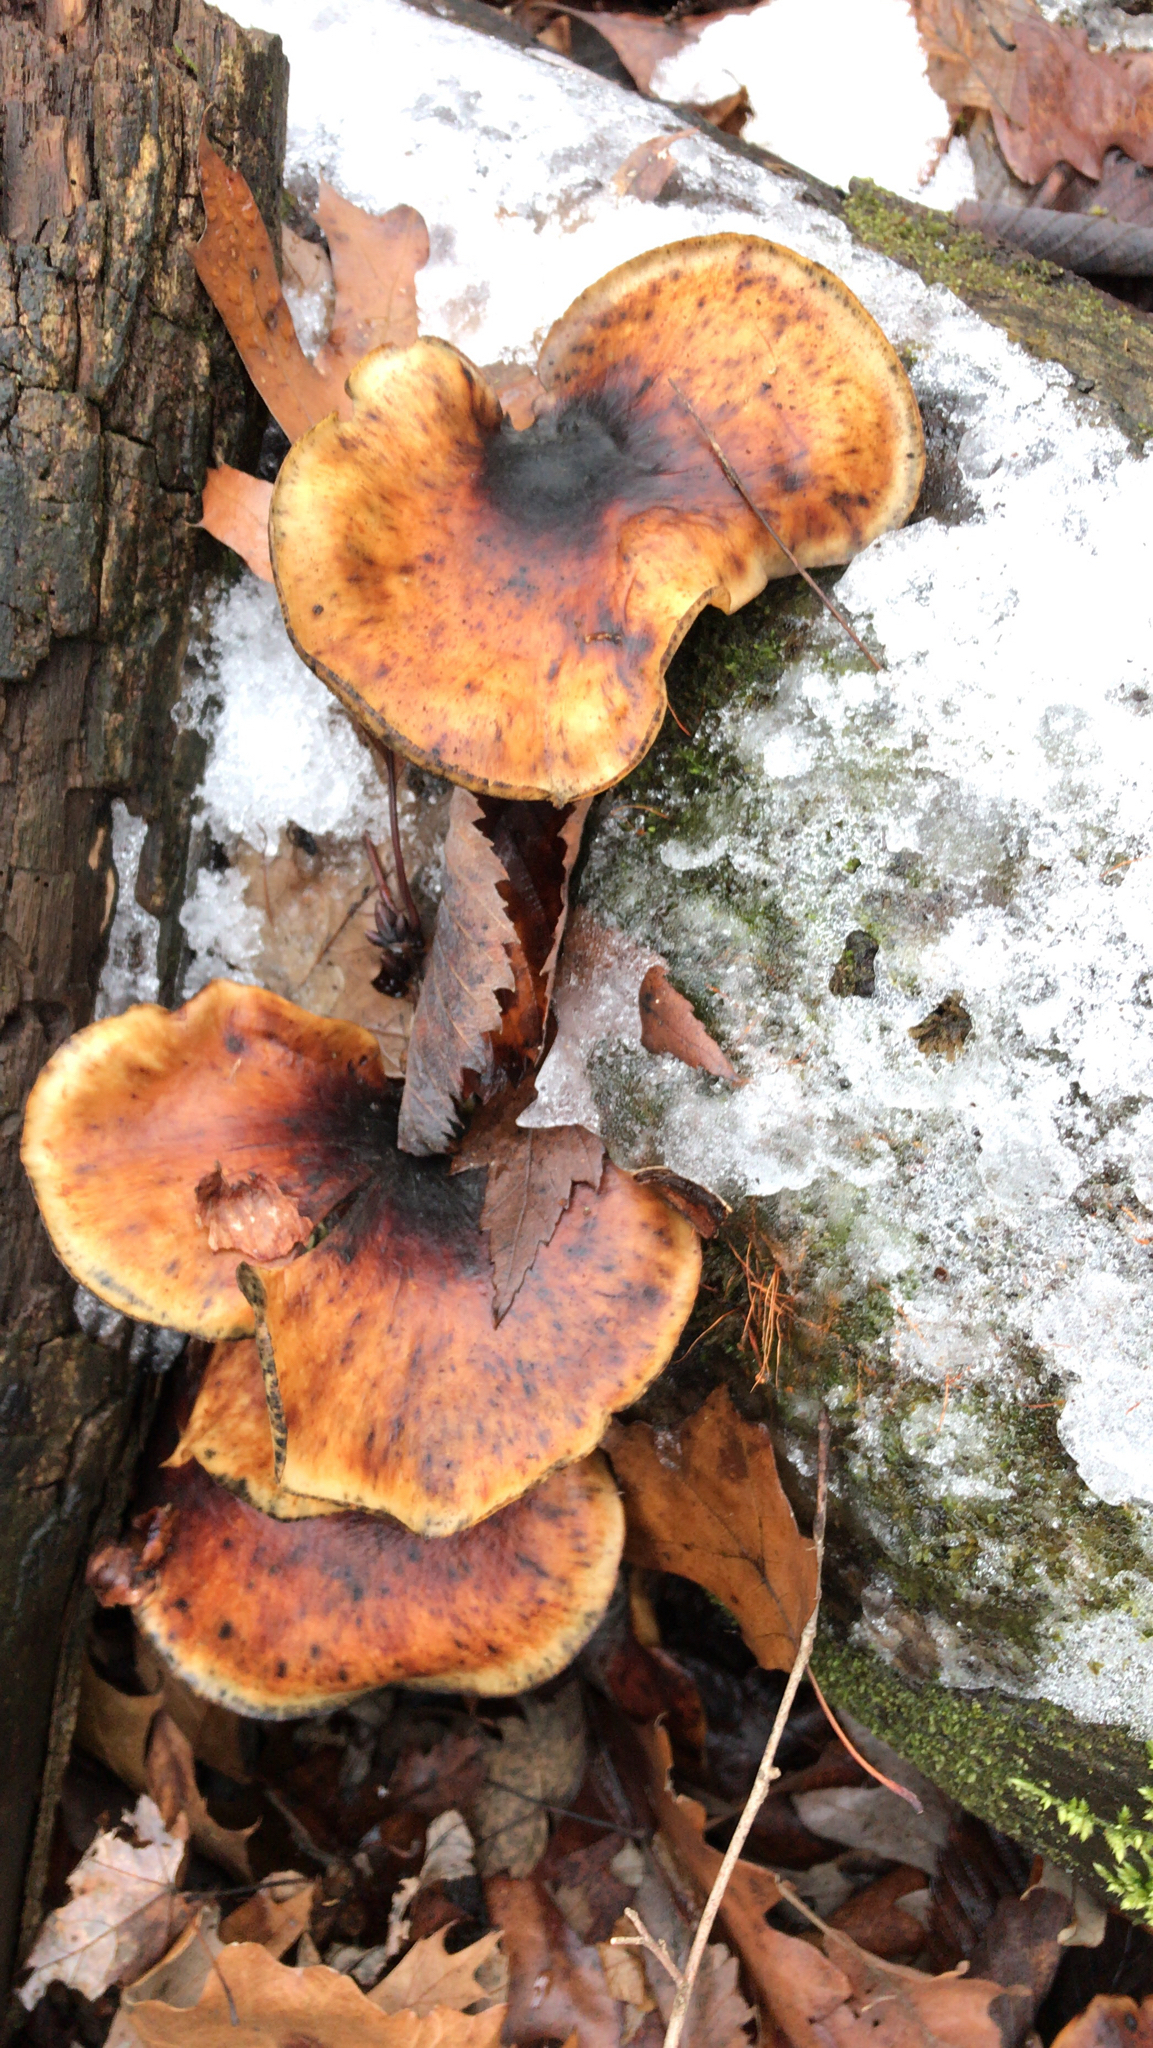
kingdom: Fungi
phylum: Basidiomycota
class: Agaricomycetes
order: Polyporales
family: Polyporaceae
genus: Picipes
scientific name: Picipes badius
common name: Bay polypore
